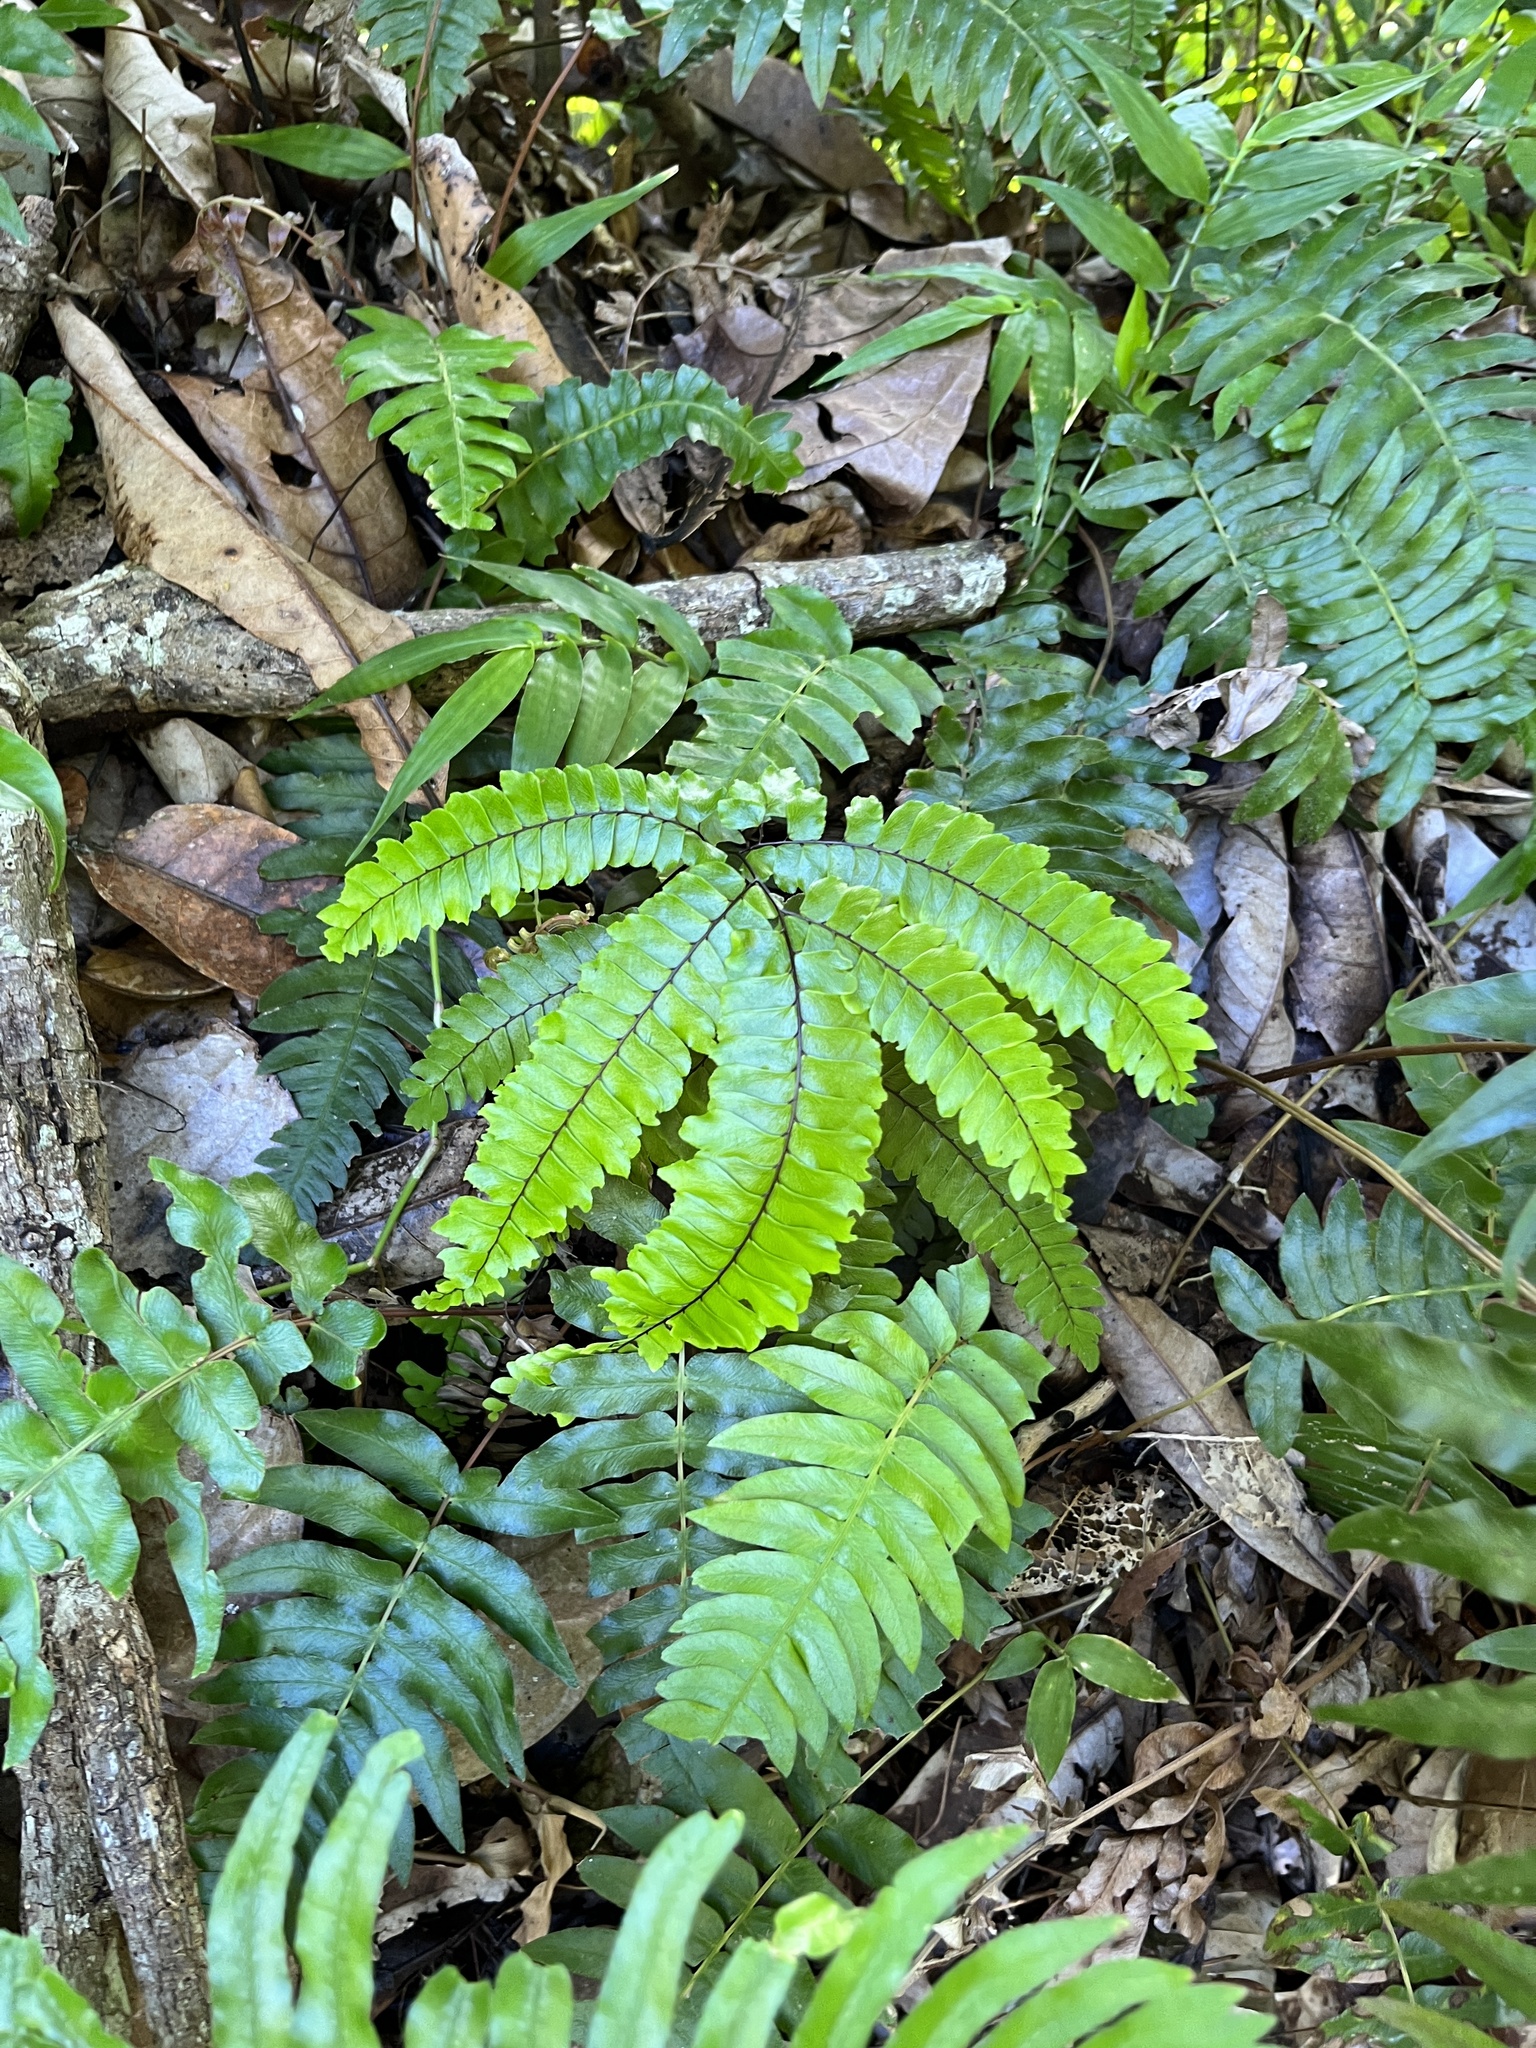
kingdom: Plantae
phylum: Tracheophyta
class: Polypodiopsida
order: Polypodiales
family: Pteridaceae
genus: Adiantum
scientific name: Adiantum pyramidale
